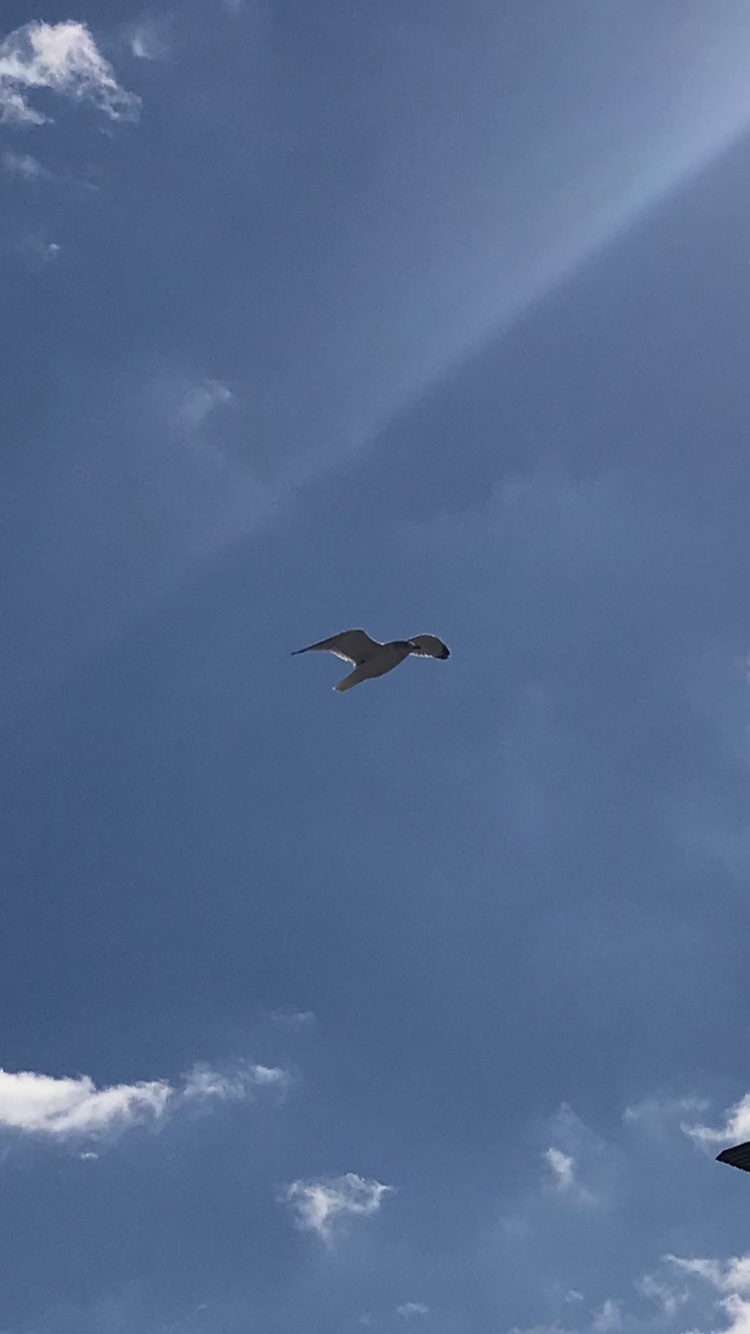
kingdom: Animalia
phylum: Chordata
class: Aves
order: Charadriiformes
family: Laridae
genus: Larus
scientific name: Larus delawarensis
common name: Ring-billed gull
